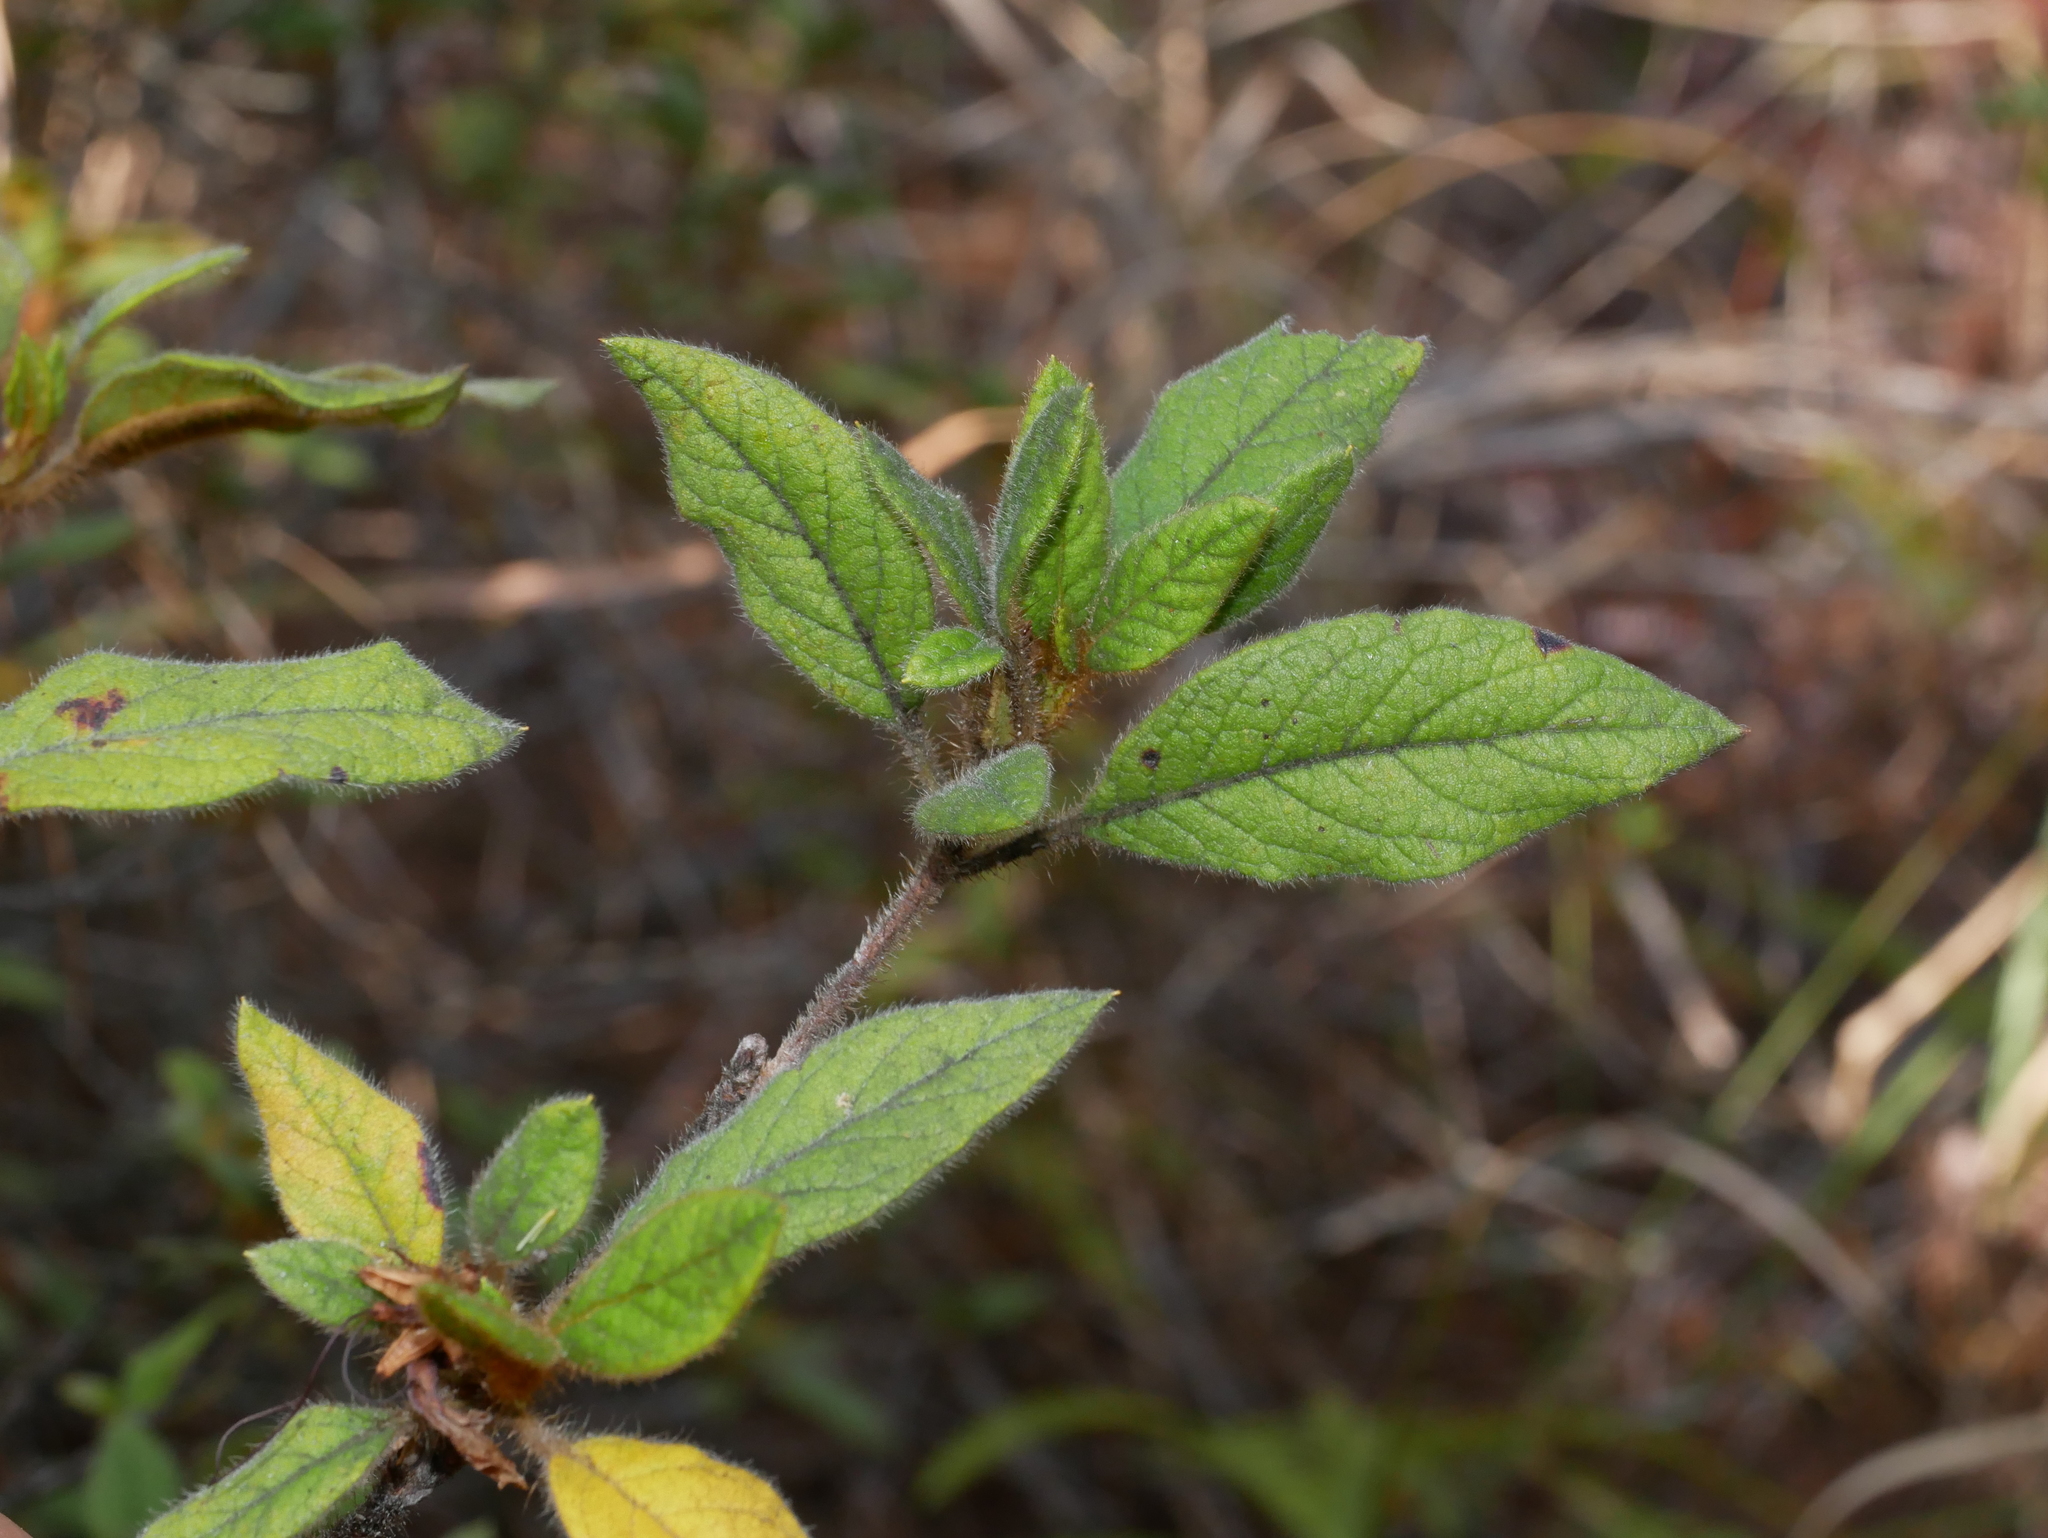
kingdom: Plantae
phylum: Tracheophyta
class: Magnoliopsida
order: Ericales
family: Ericaceae
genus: Rhododendron
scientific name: Rhododendron oldhamii
